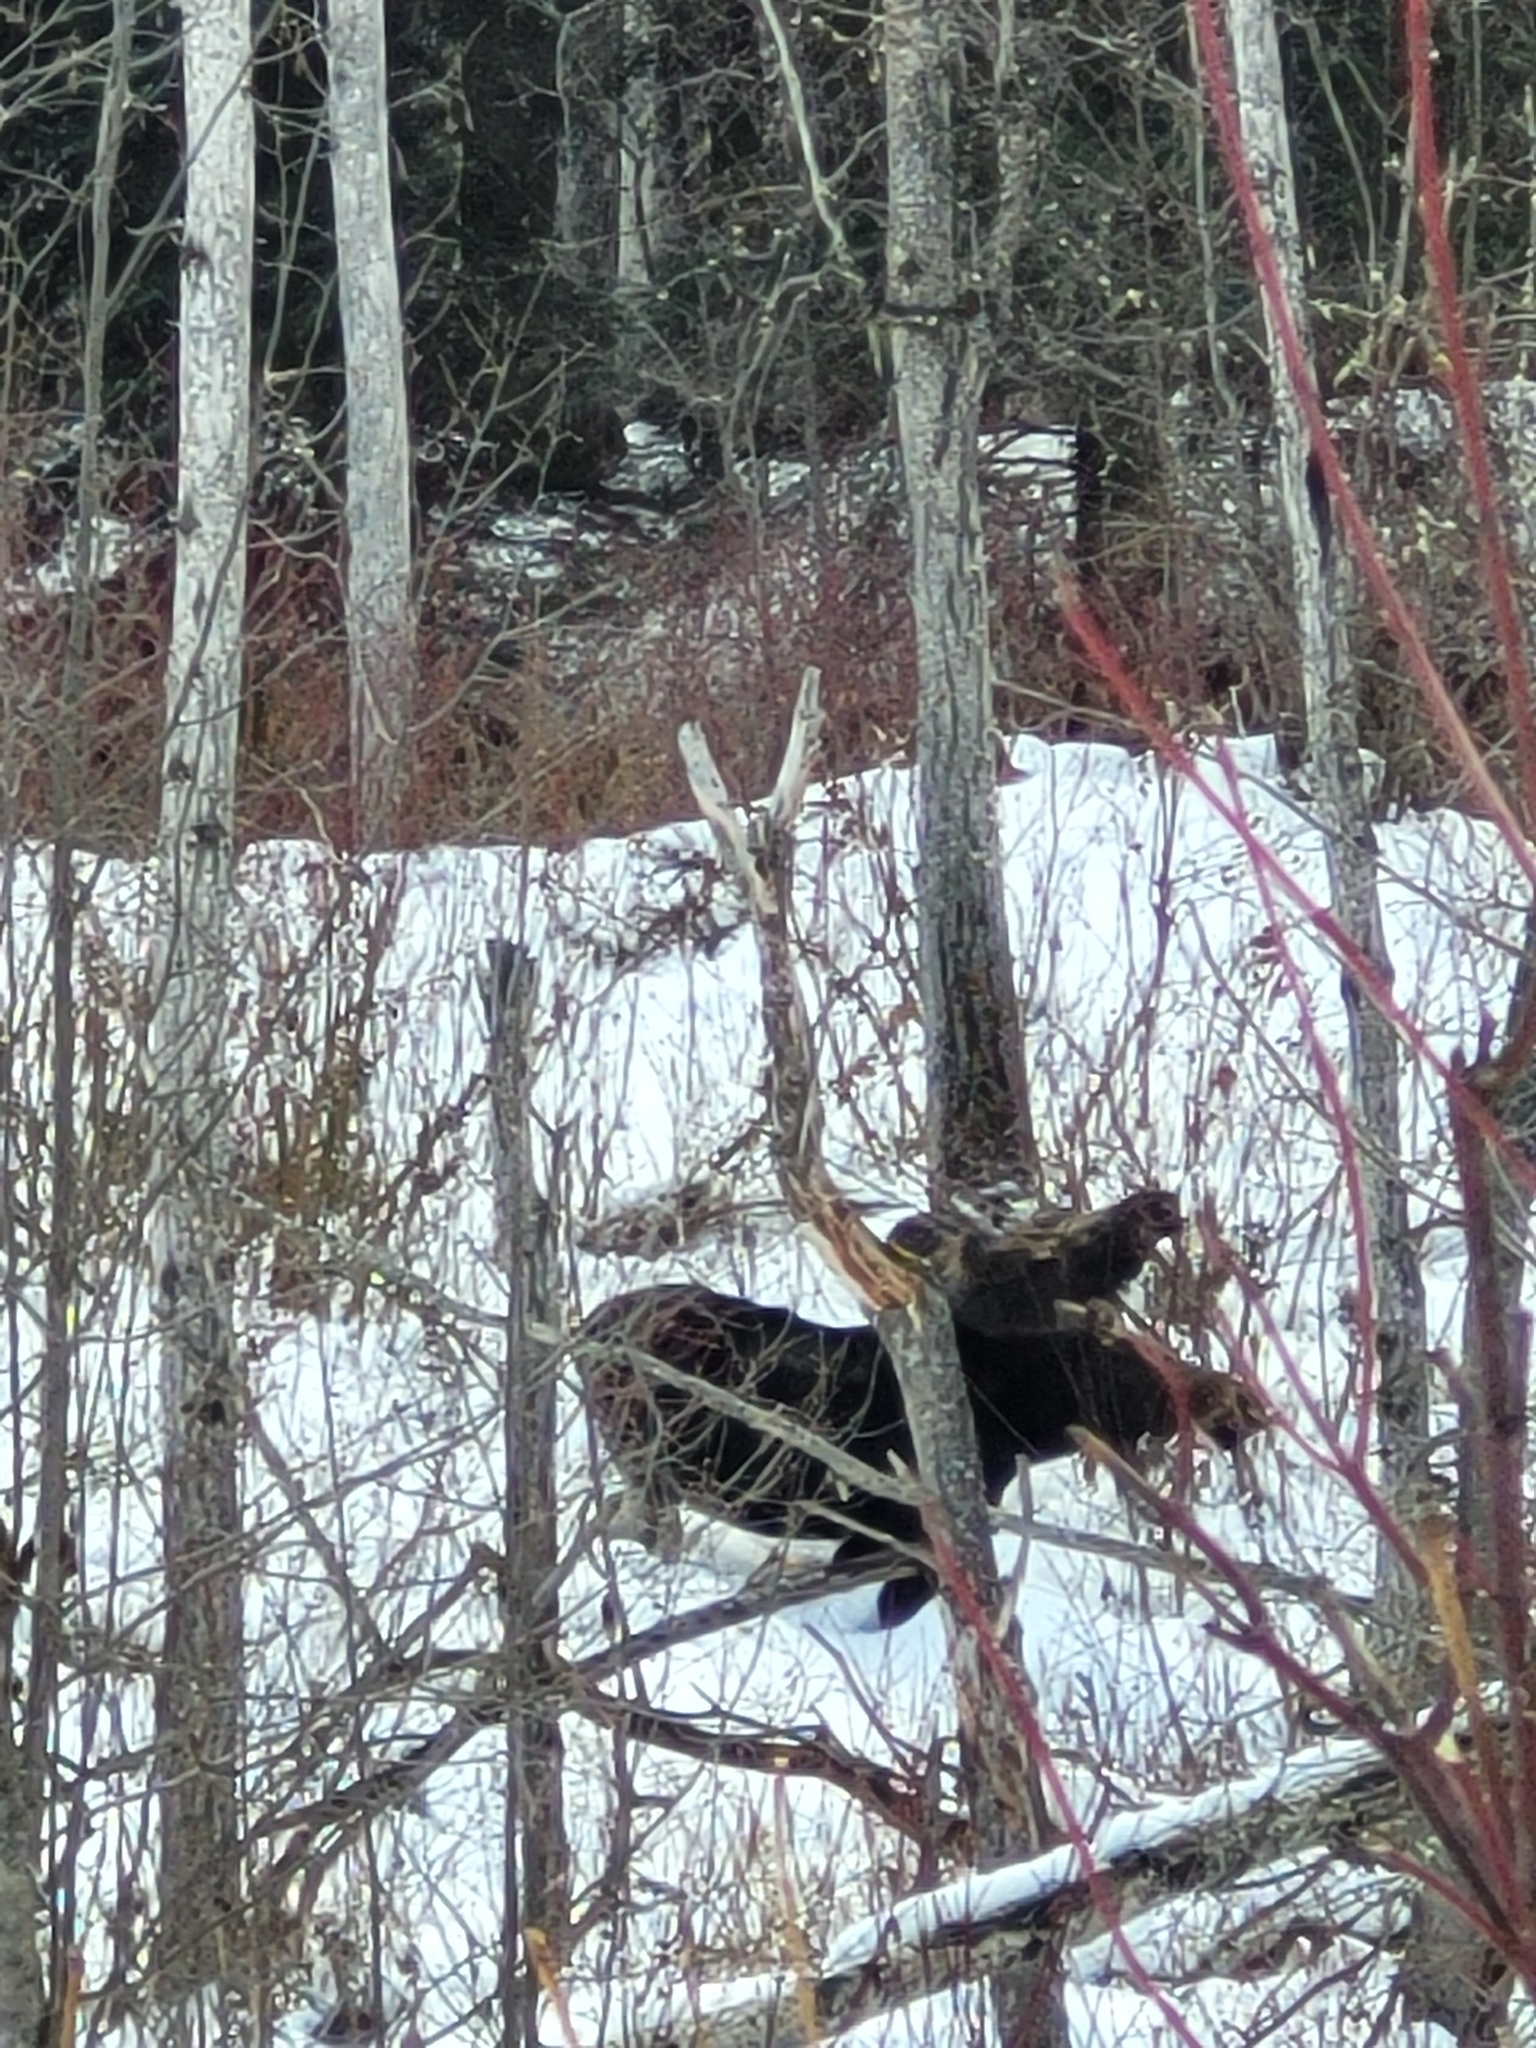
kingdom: Animalia
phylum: Chordata
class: Mammalia
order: Artiodactyla
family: Cervidae
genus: Alces
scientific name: Alces alces
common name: Moose
